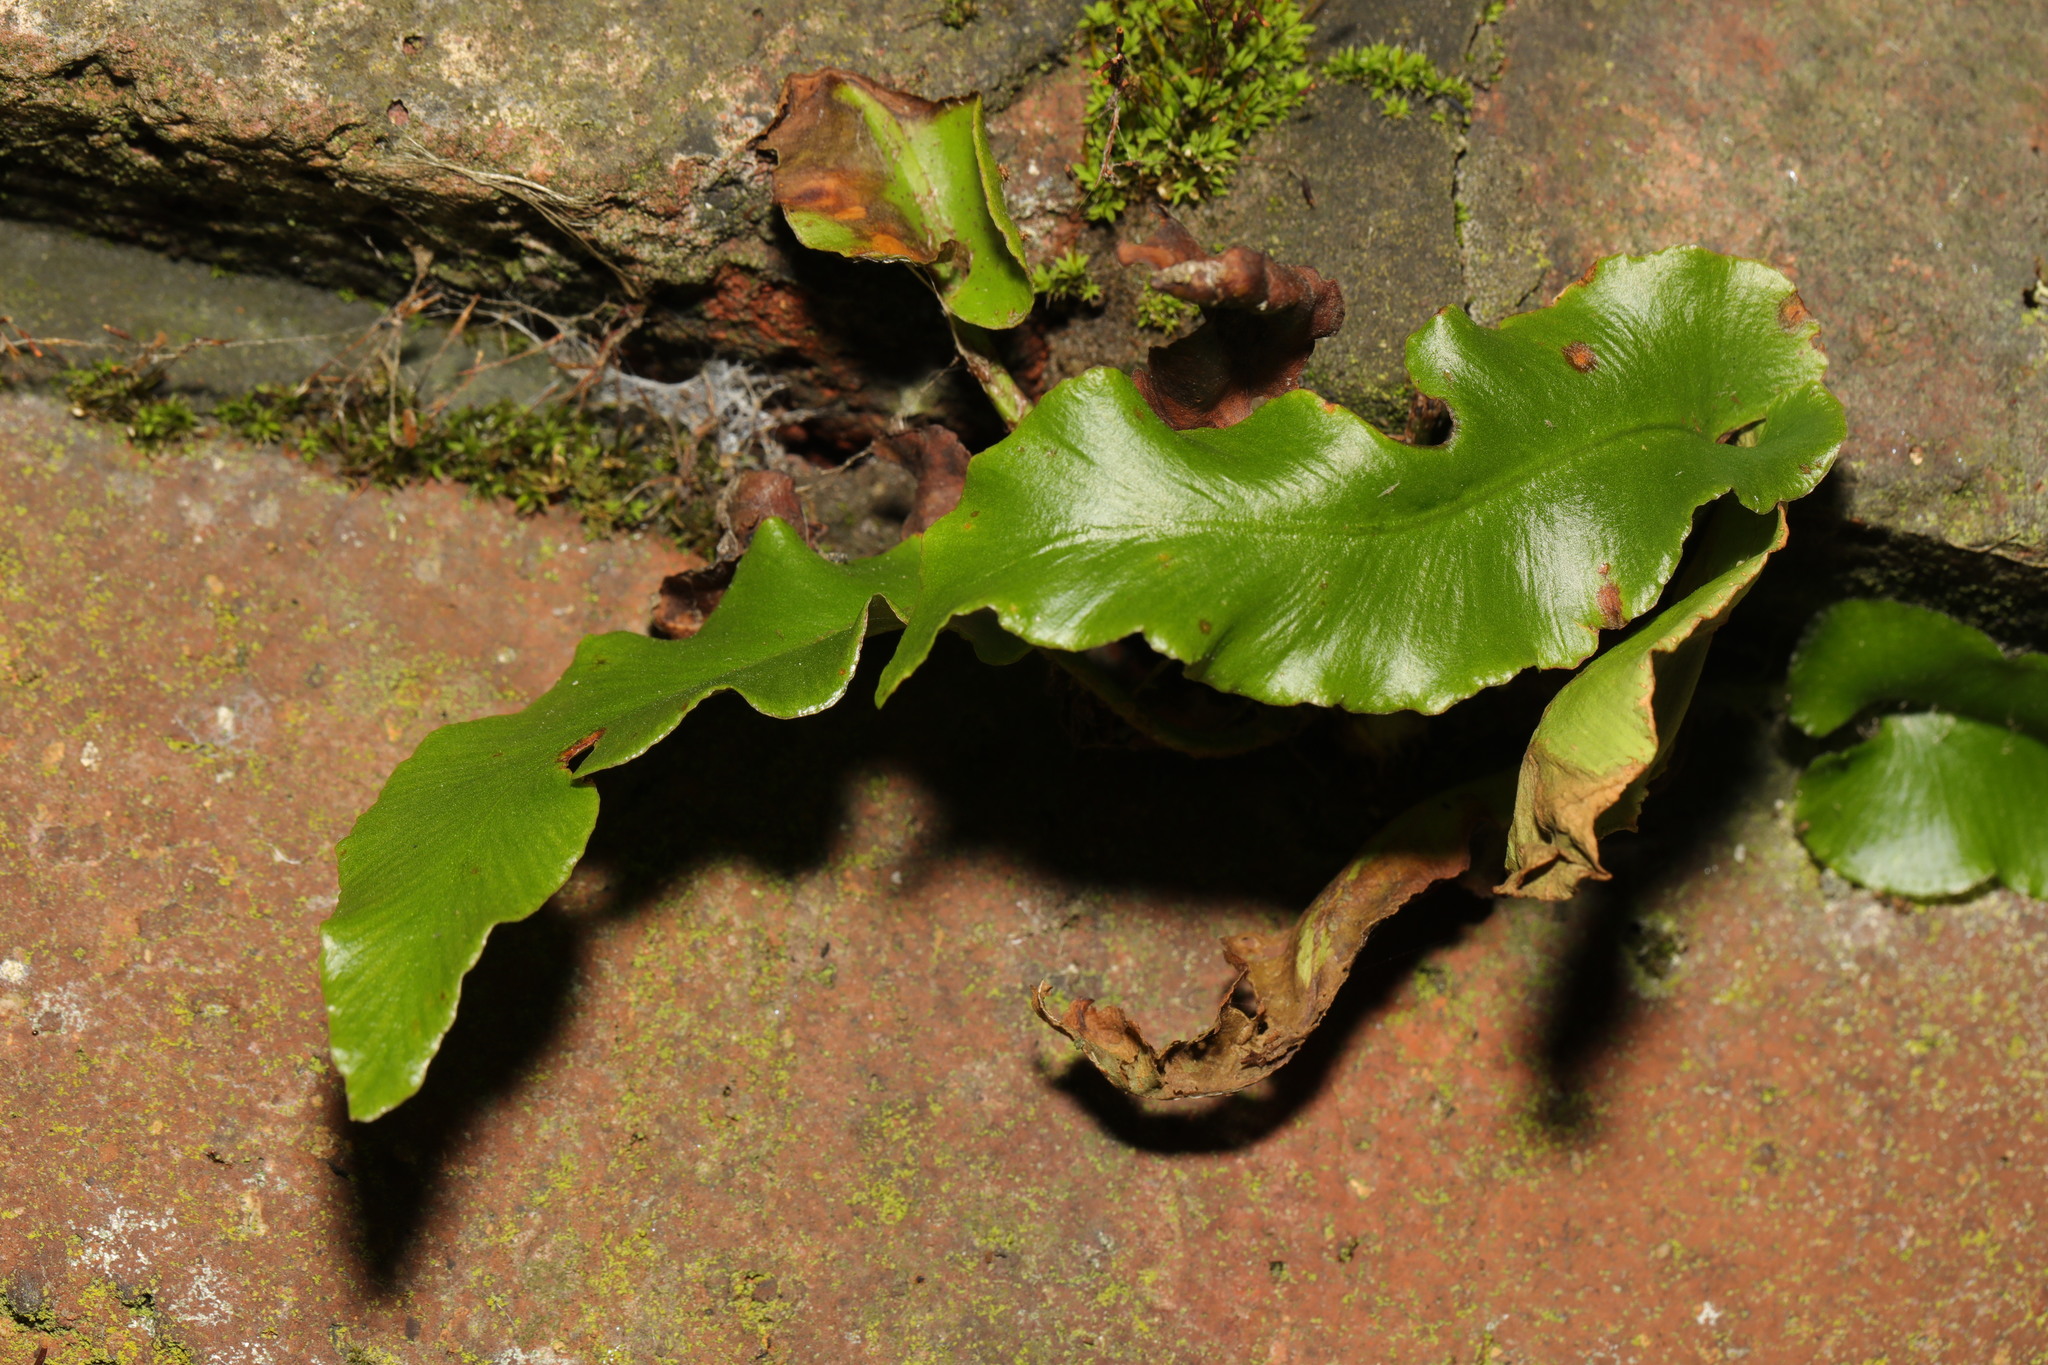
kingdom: Plantae
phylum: Tracheophyta
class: Polypodiopsida
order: Polypodiales
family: Aspleniaceae
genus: Asplenium
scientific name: Asplenium scolopendrium
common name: Hart's-tongue fern
